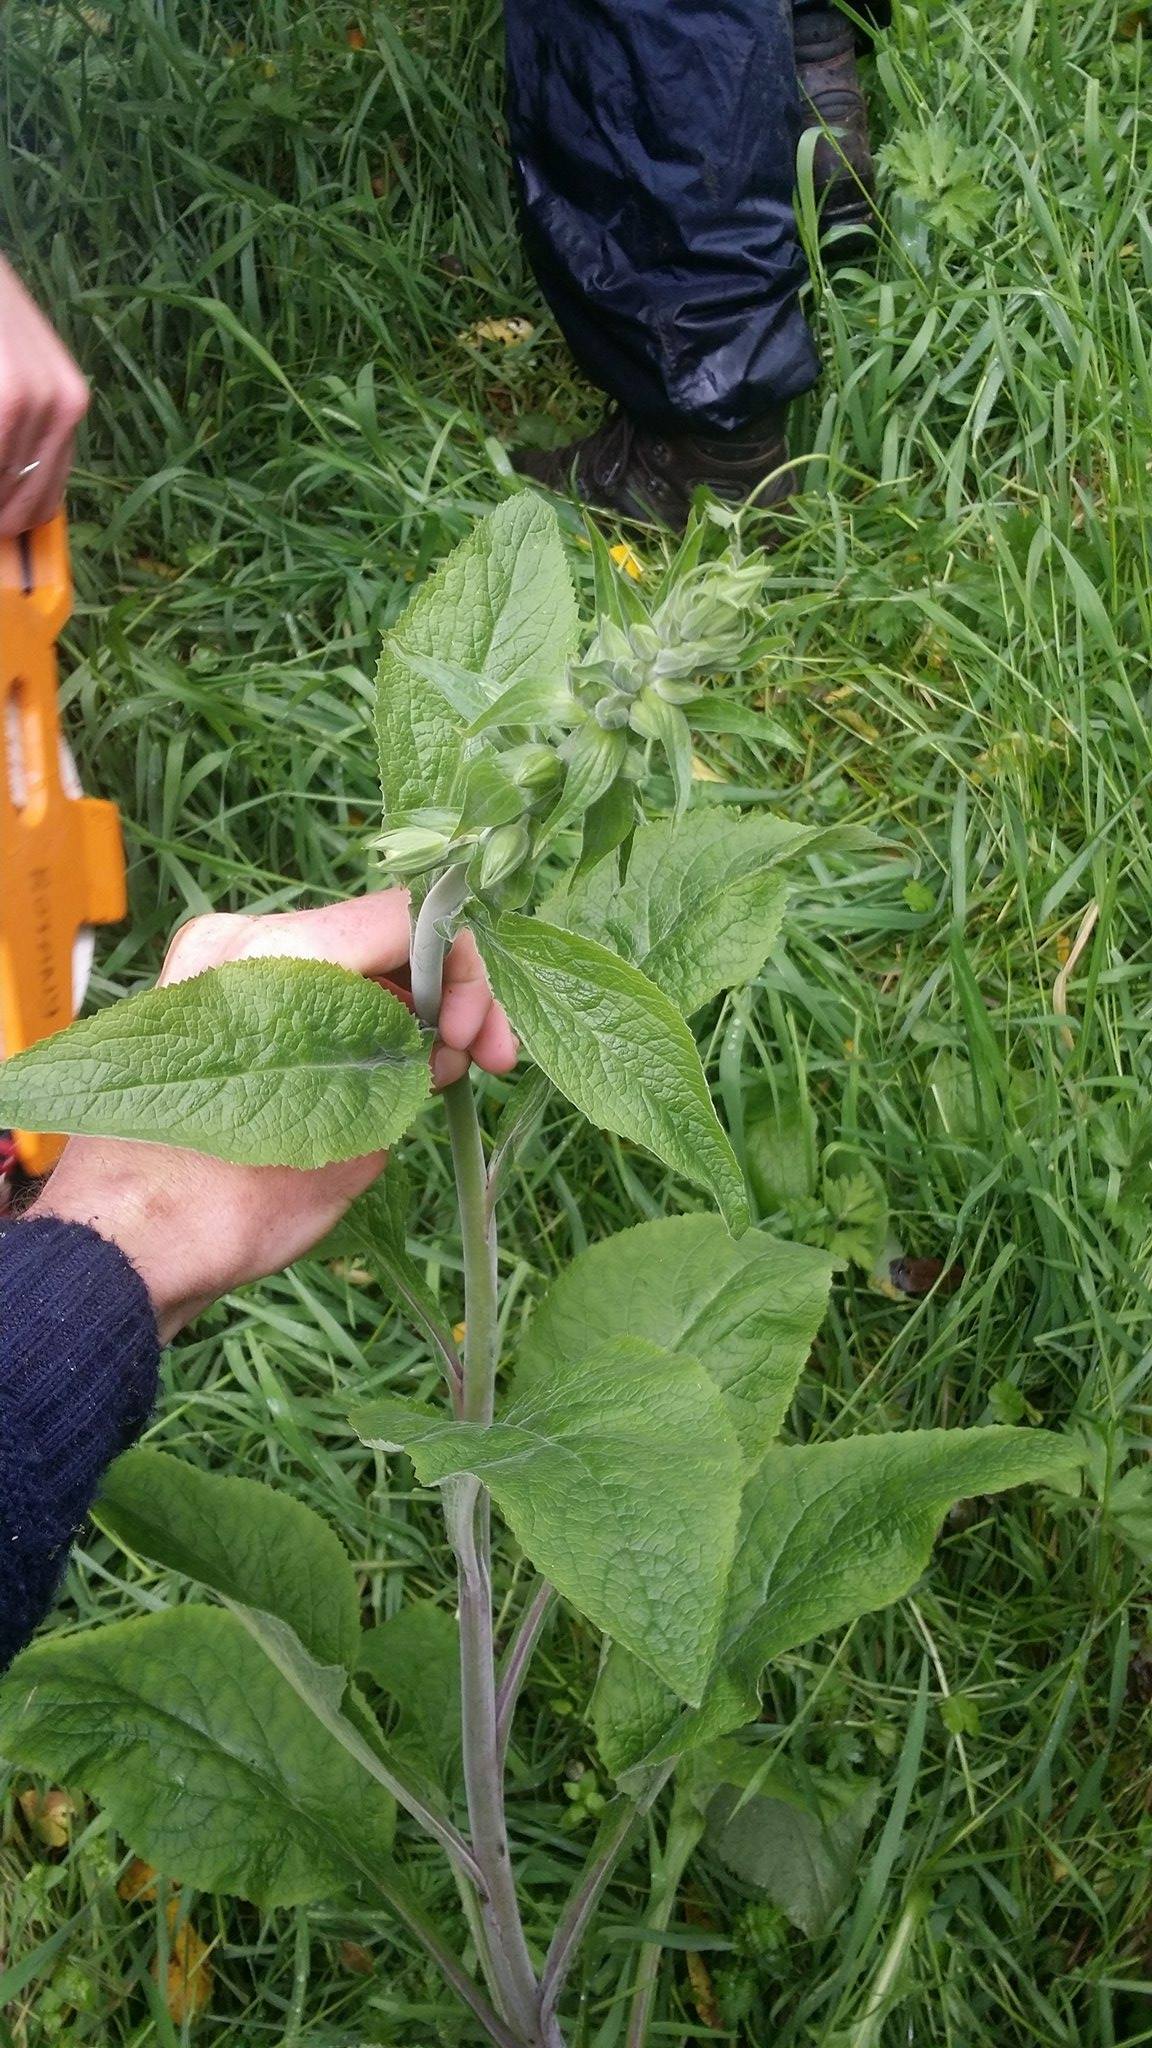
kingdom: Plantae
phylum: Tracheophyta
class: Magnoliopsida
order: Lamiales
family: Plantaginaceae
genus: Digitalis
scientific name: Digitalis purpurea
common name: Foxglove
